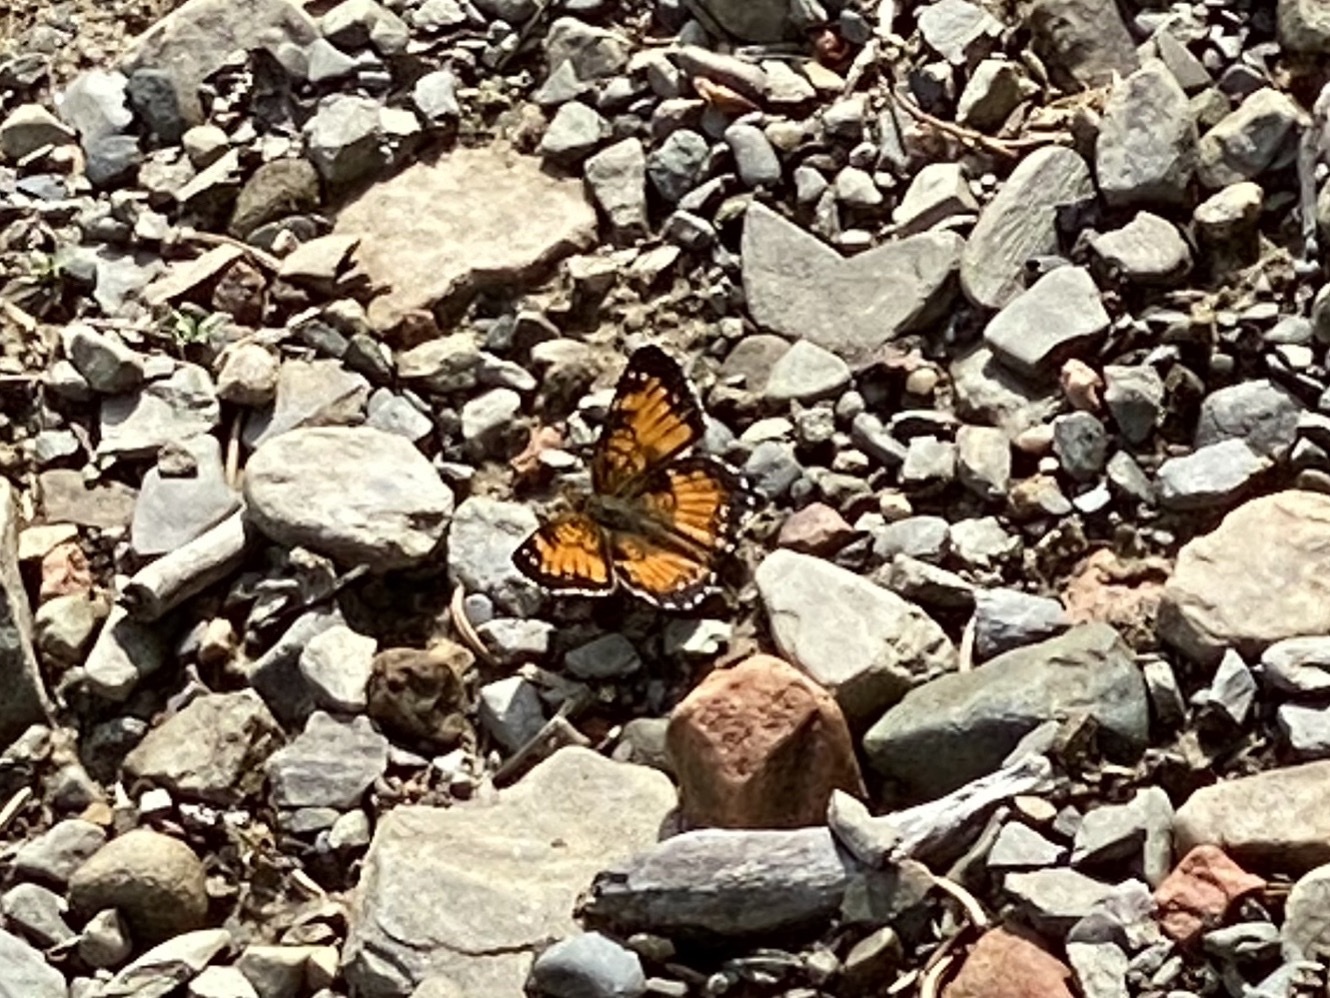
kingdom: Animalia
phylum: Arthropoda
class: Insecta
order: Lepidoptera
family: Nymphalidae
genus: Chlosyne
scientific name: Chlosyne harrisii
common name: Harris's checkerspot
